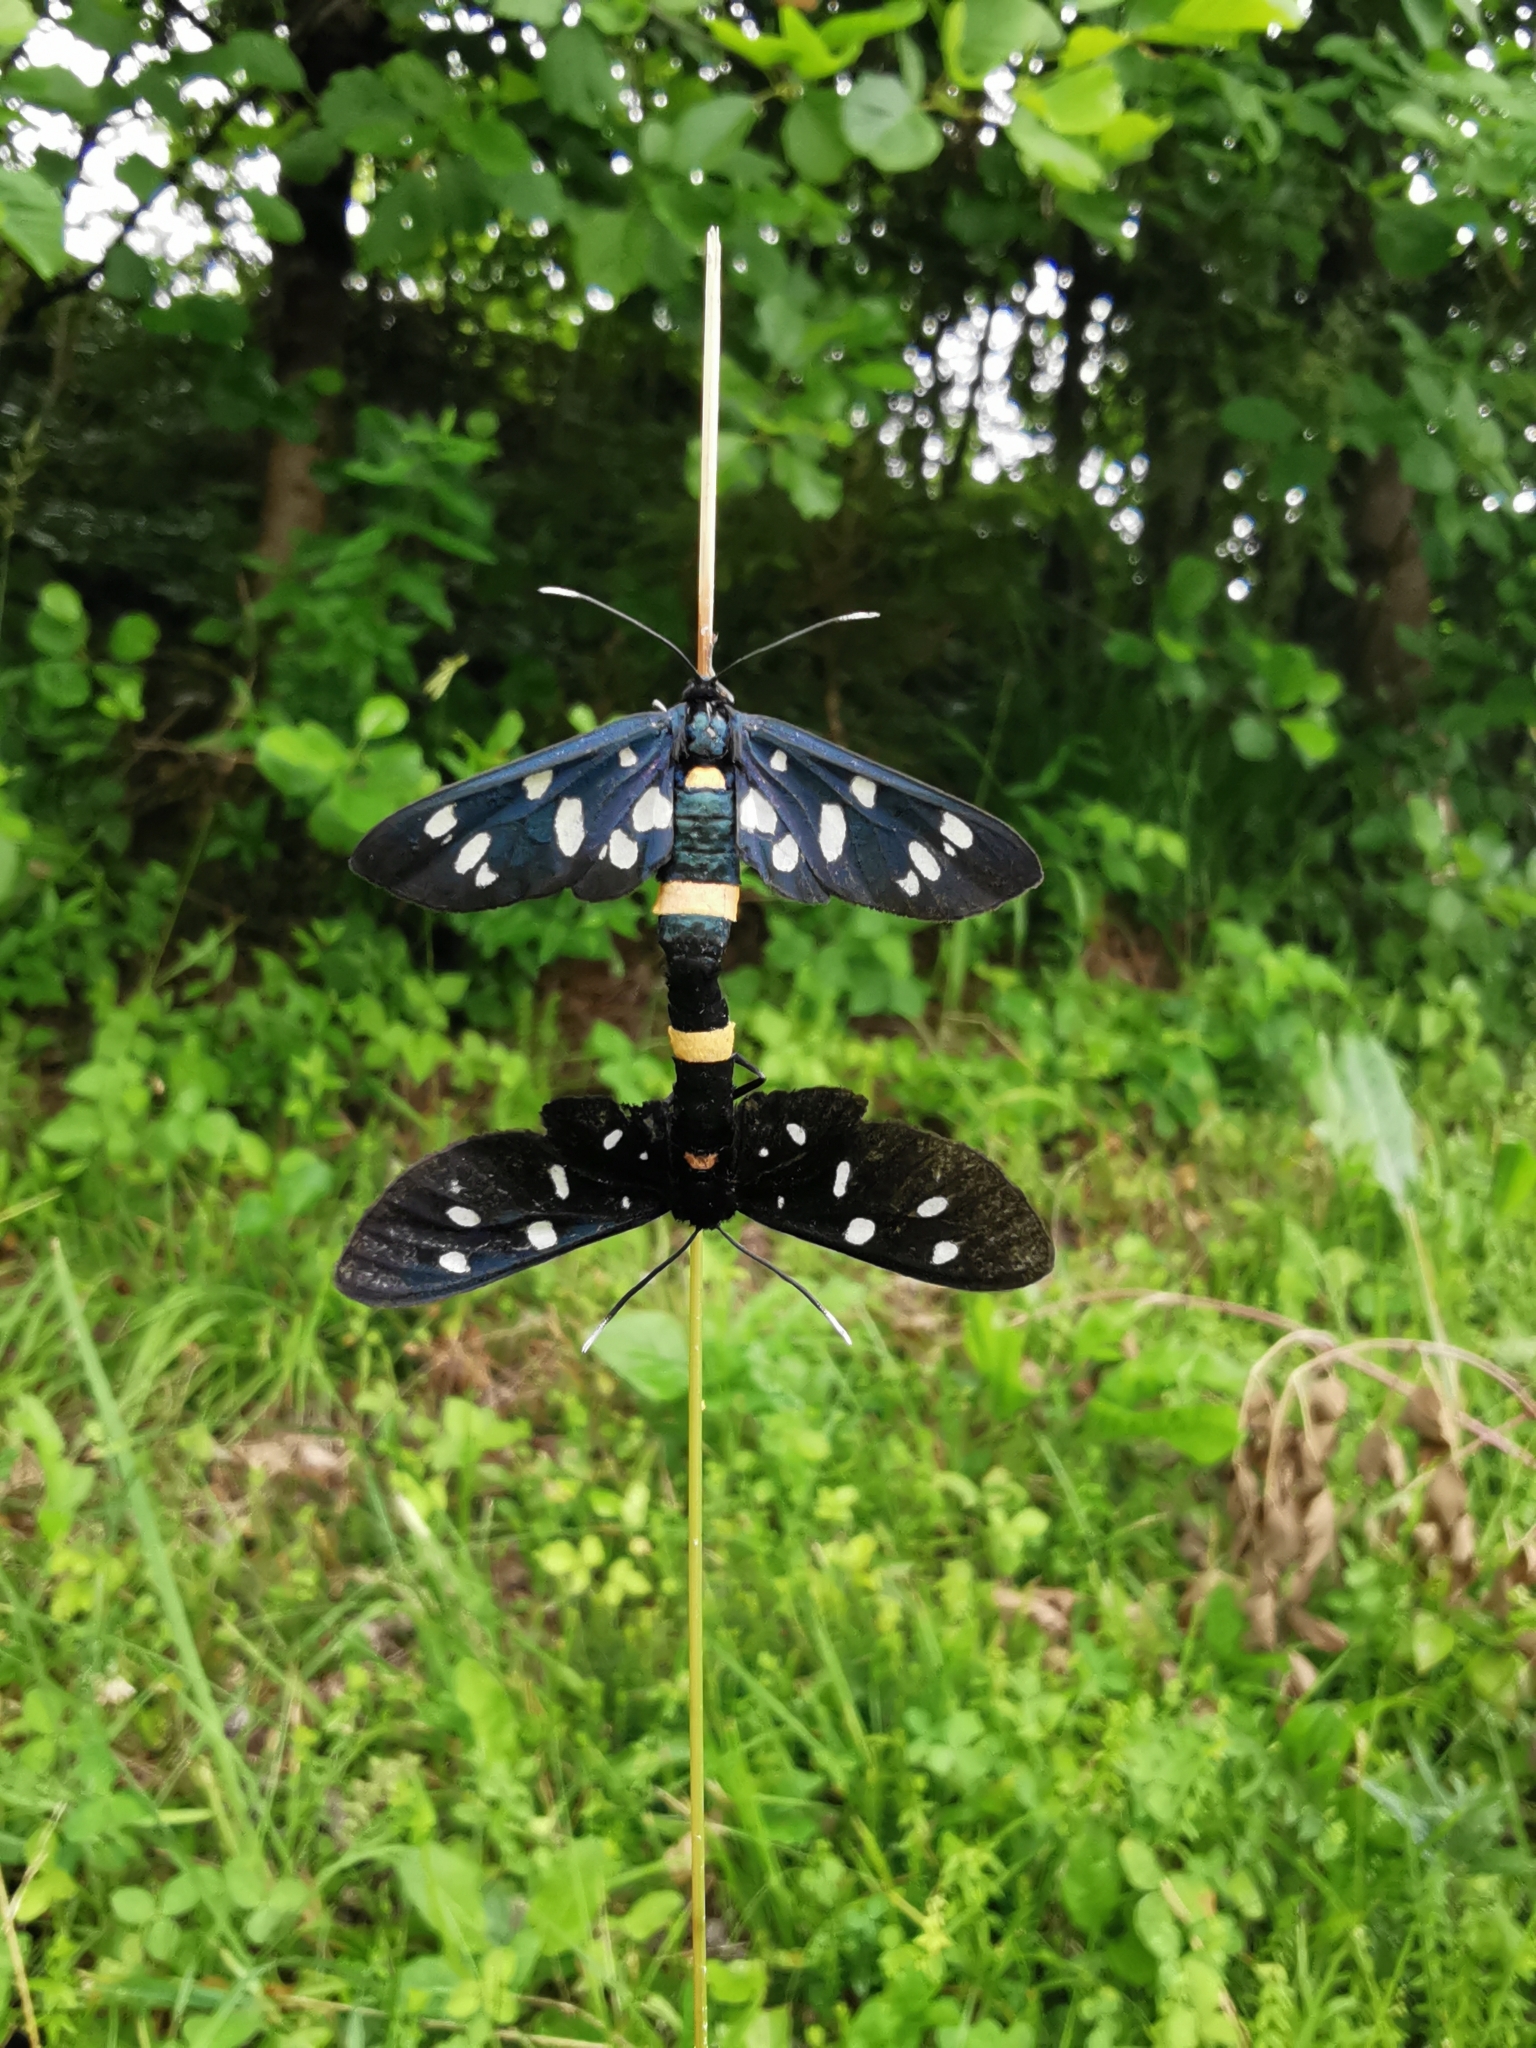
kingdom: Animalia
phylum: Arthropoda
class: Insecta
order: Lepidoptera
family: Erebidae
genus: Amata
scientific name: Amata phegea
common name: Nine-spotted
